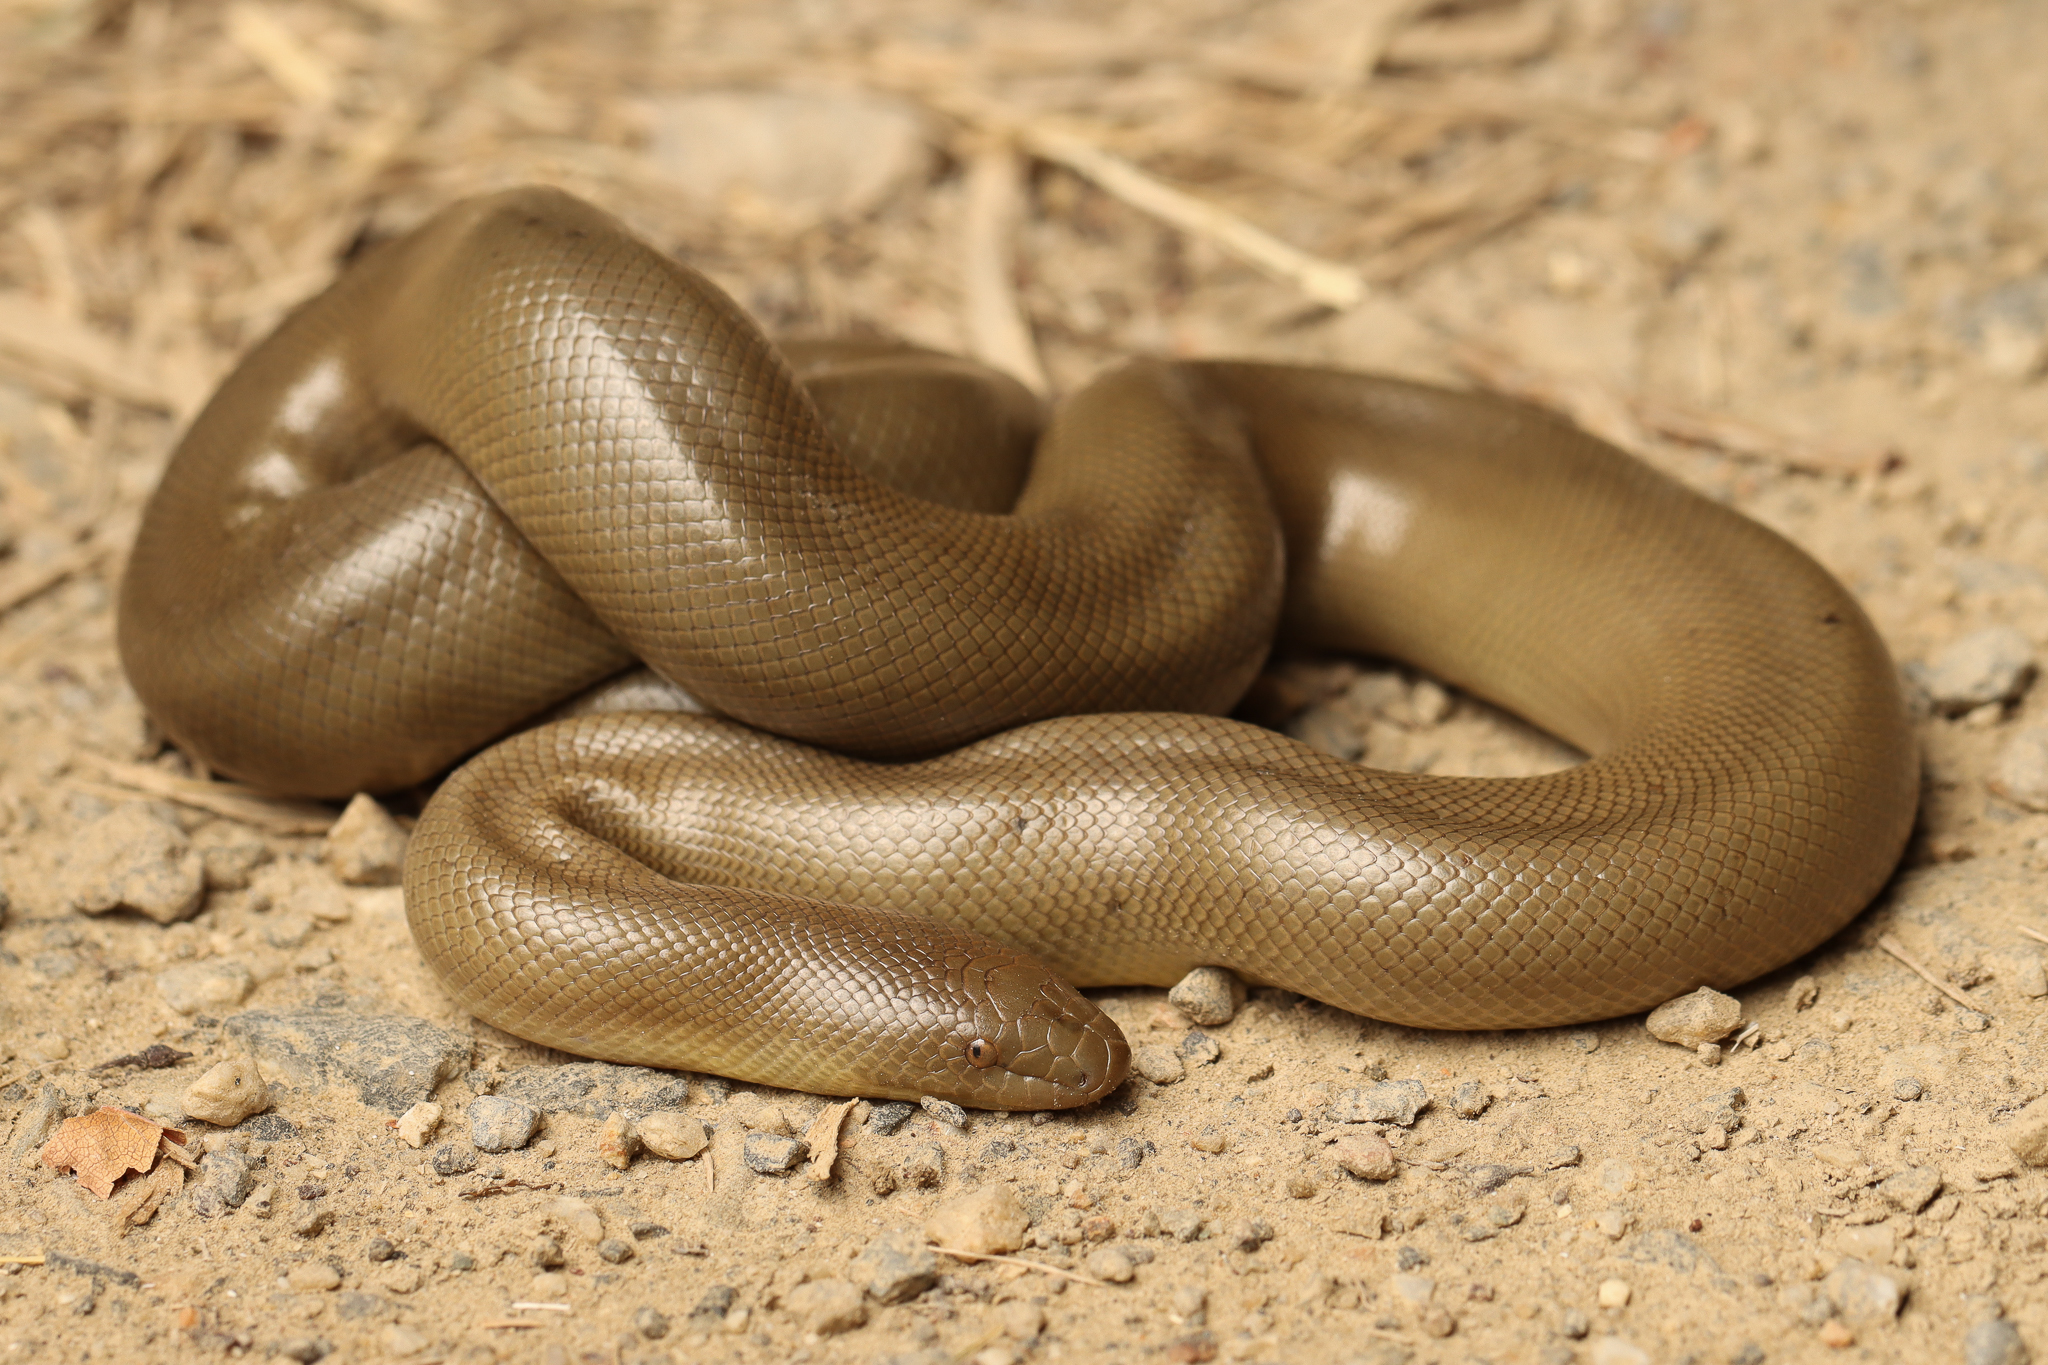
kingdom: Animalia
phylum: Chordata
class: Squamata
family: Boidae
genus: Charina
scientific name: Charina bottae
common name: Northern rubber boa
